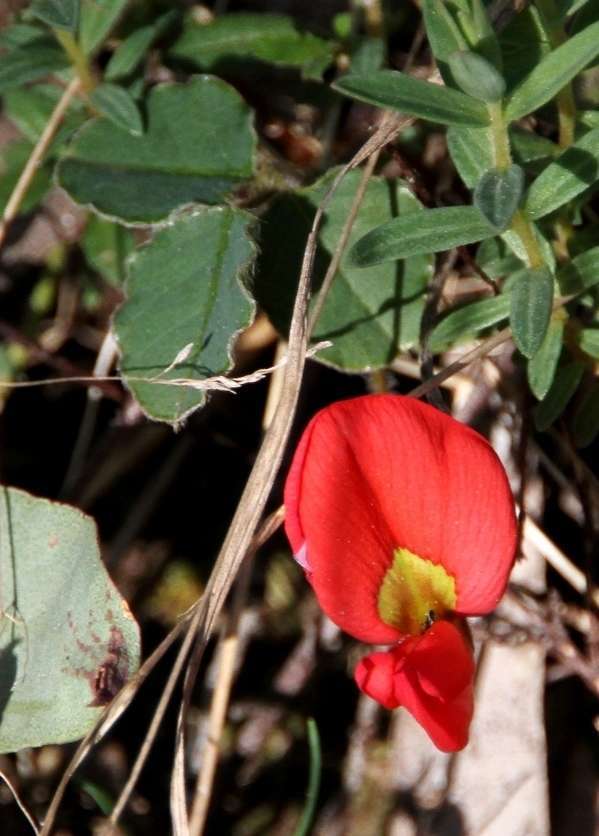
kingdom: Plantae
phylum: Tracheophyta
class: Magnoliopsida
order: Fabales
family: Fabaceae
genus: Kennedia
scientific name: Kennedia prostrata
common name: Running-postman
